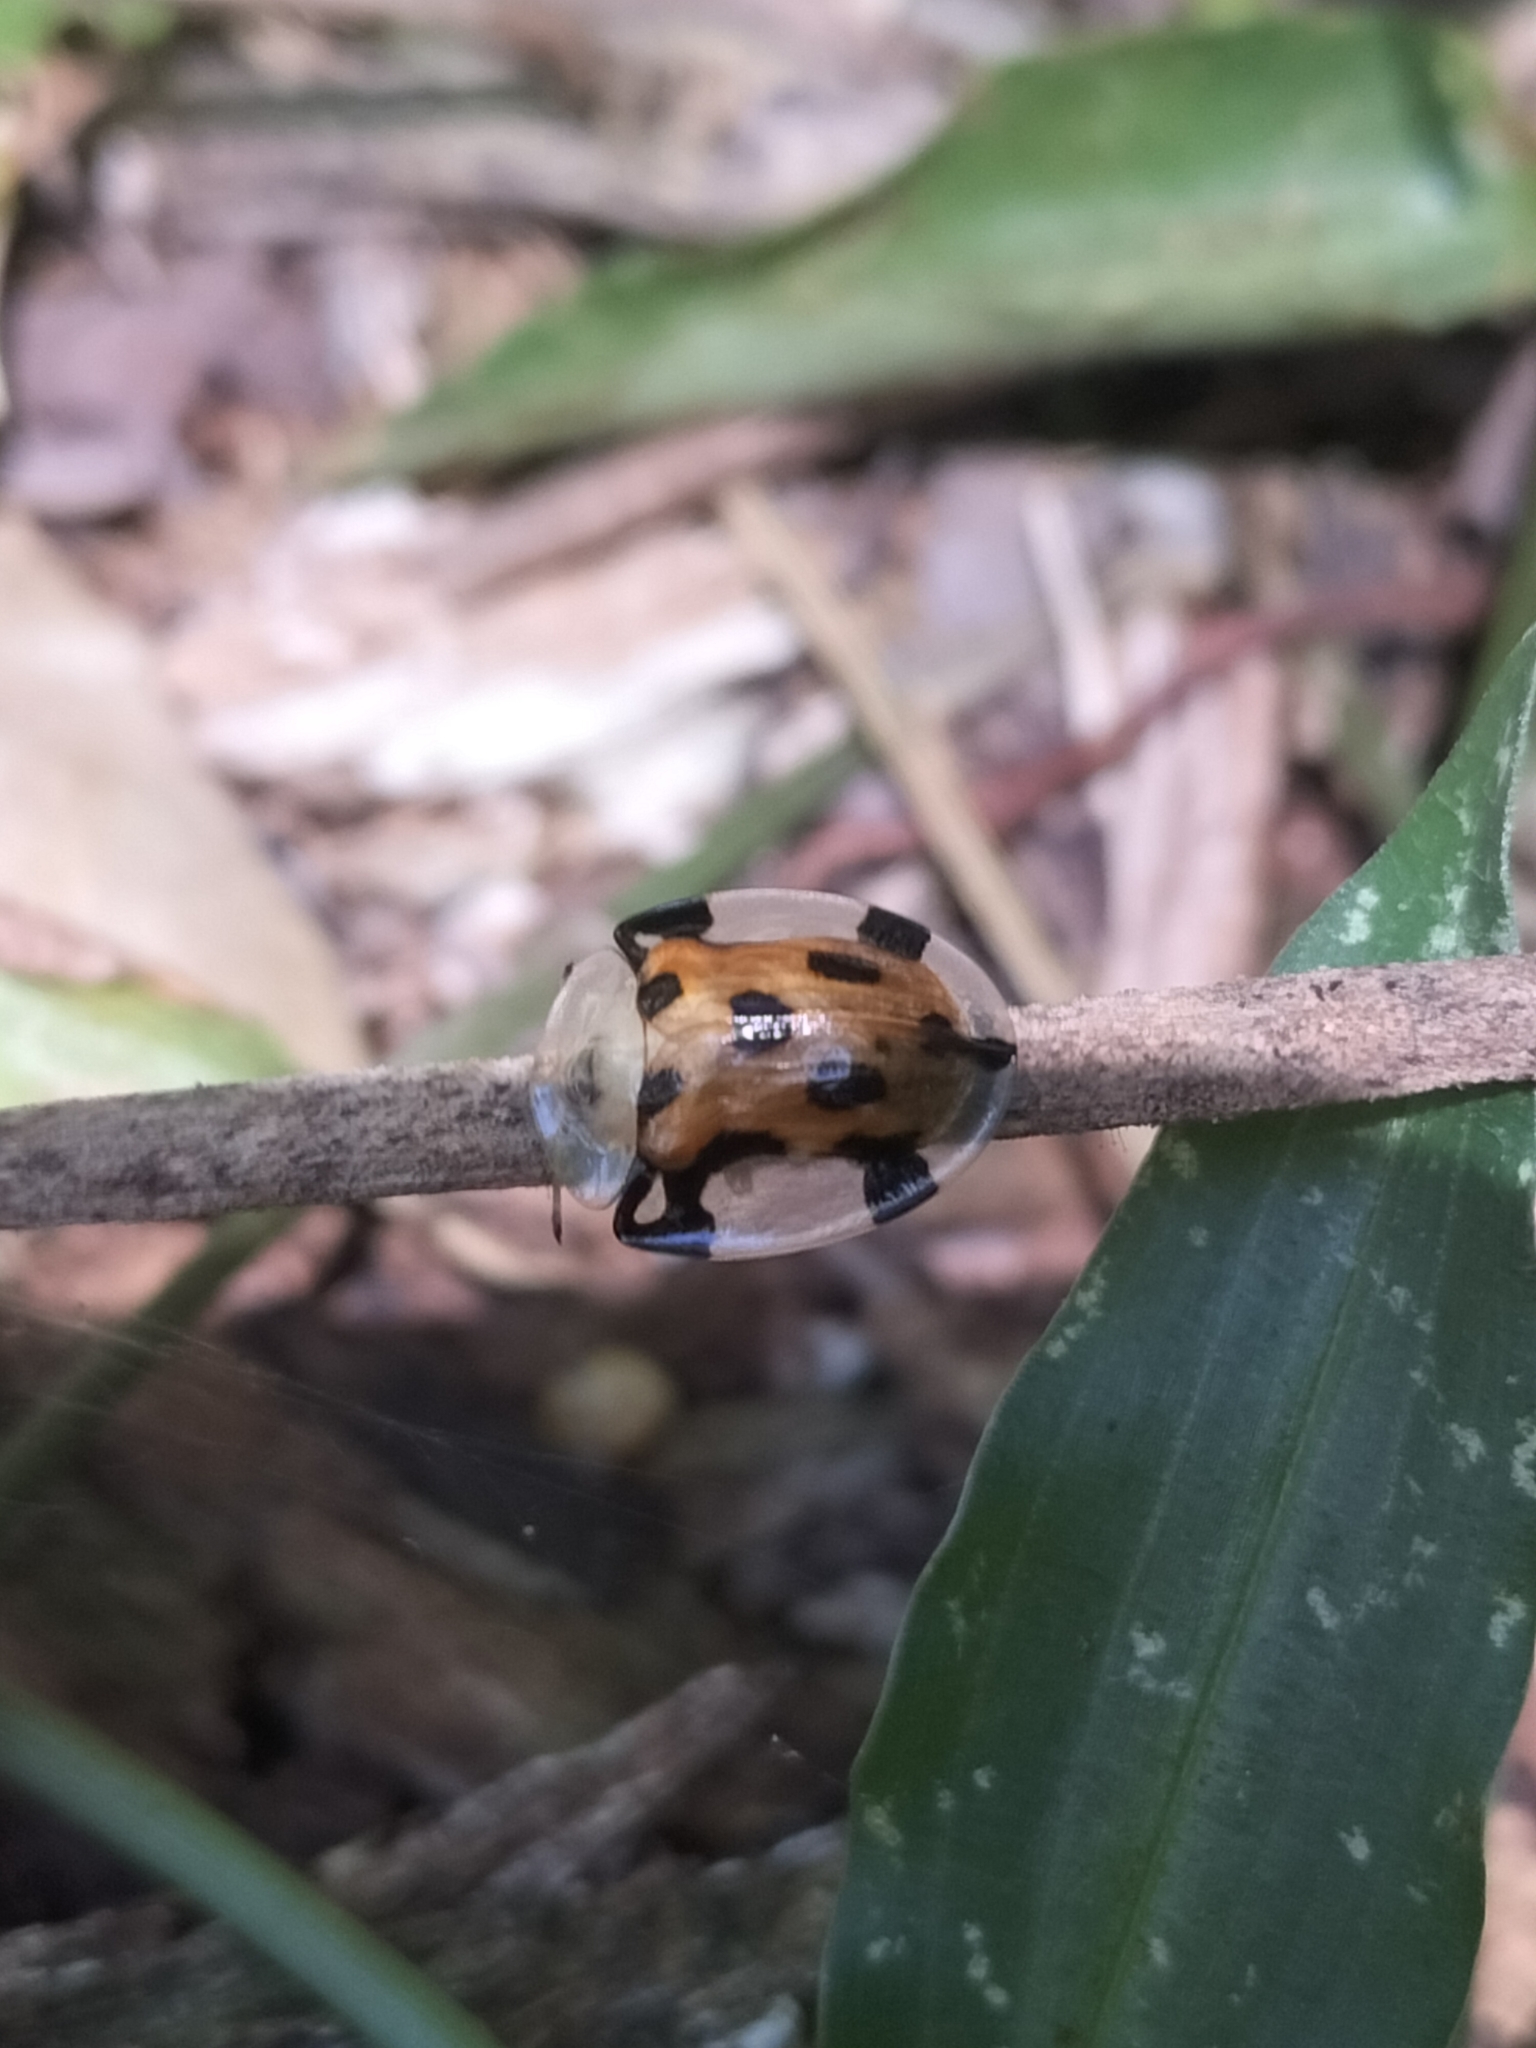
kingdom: Animalia
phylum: Arthropoda
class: Insecta
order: Coleoptera
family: Chrysomelidae
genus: Aspidimorpha
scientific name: Aspidimorpha punctum
